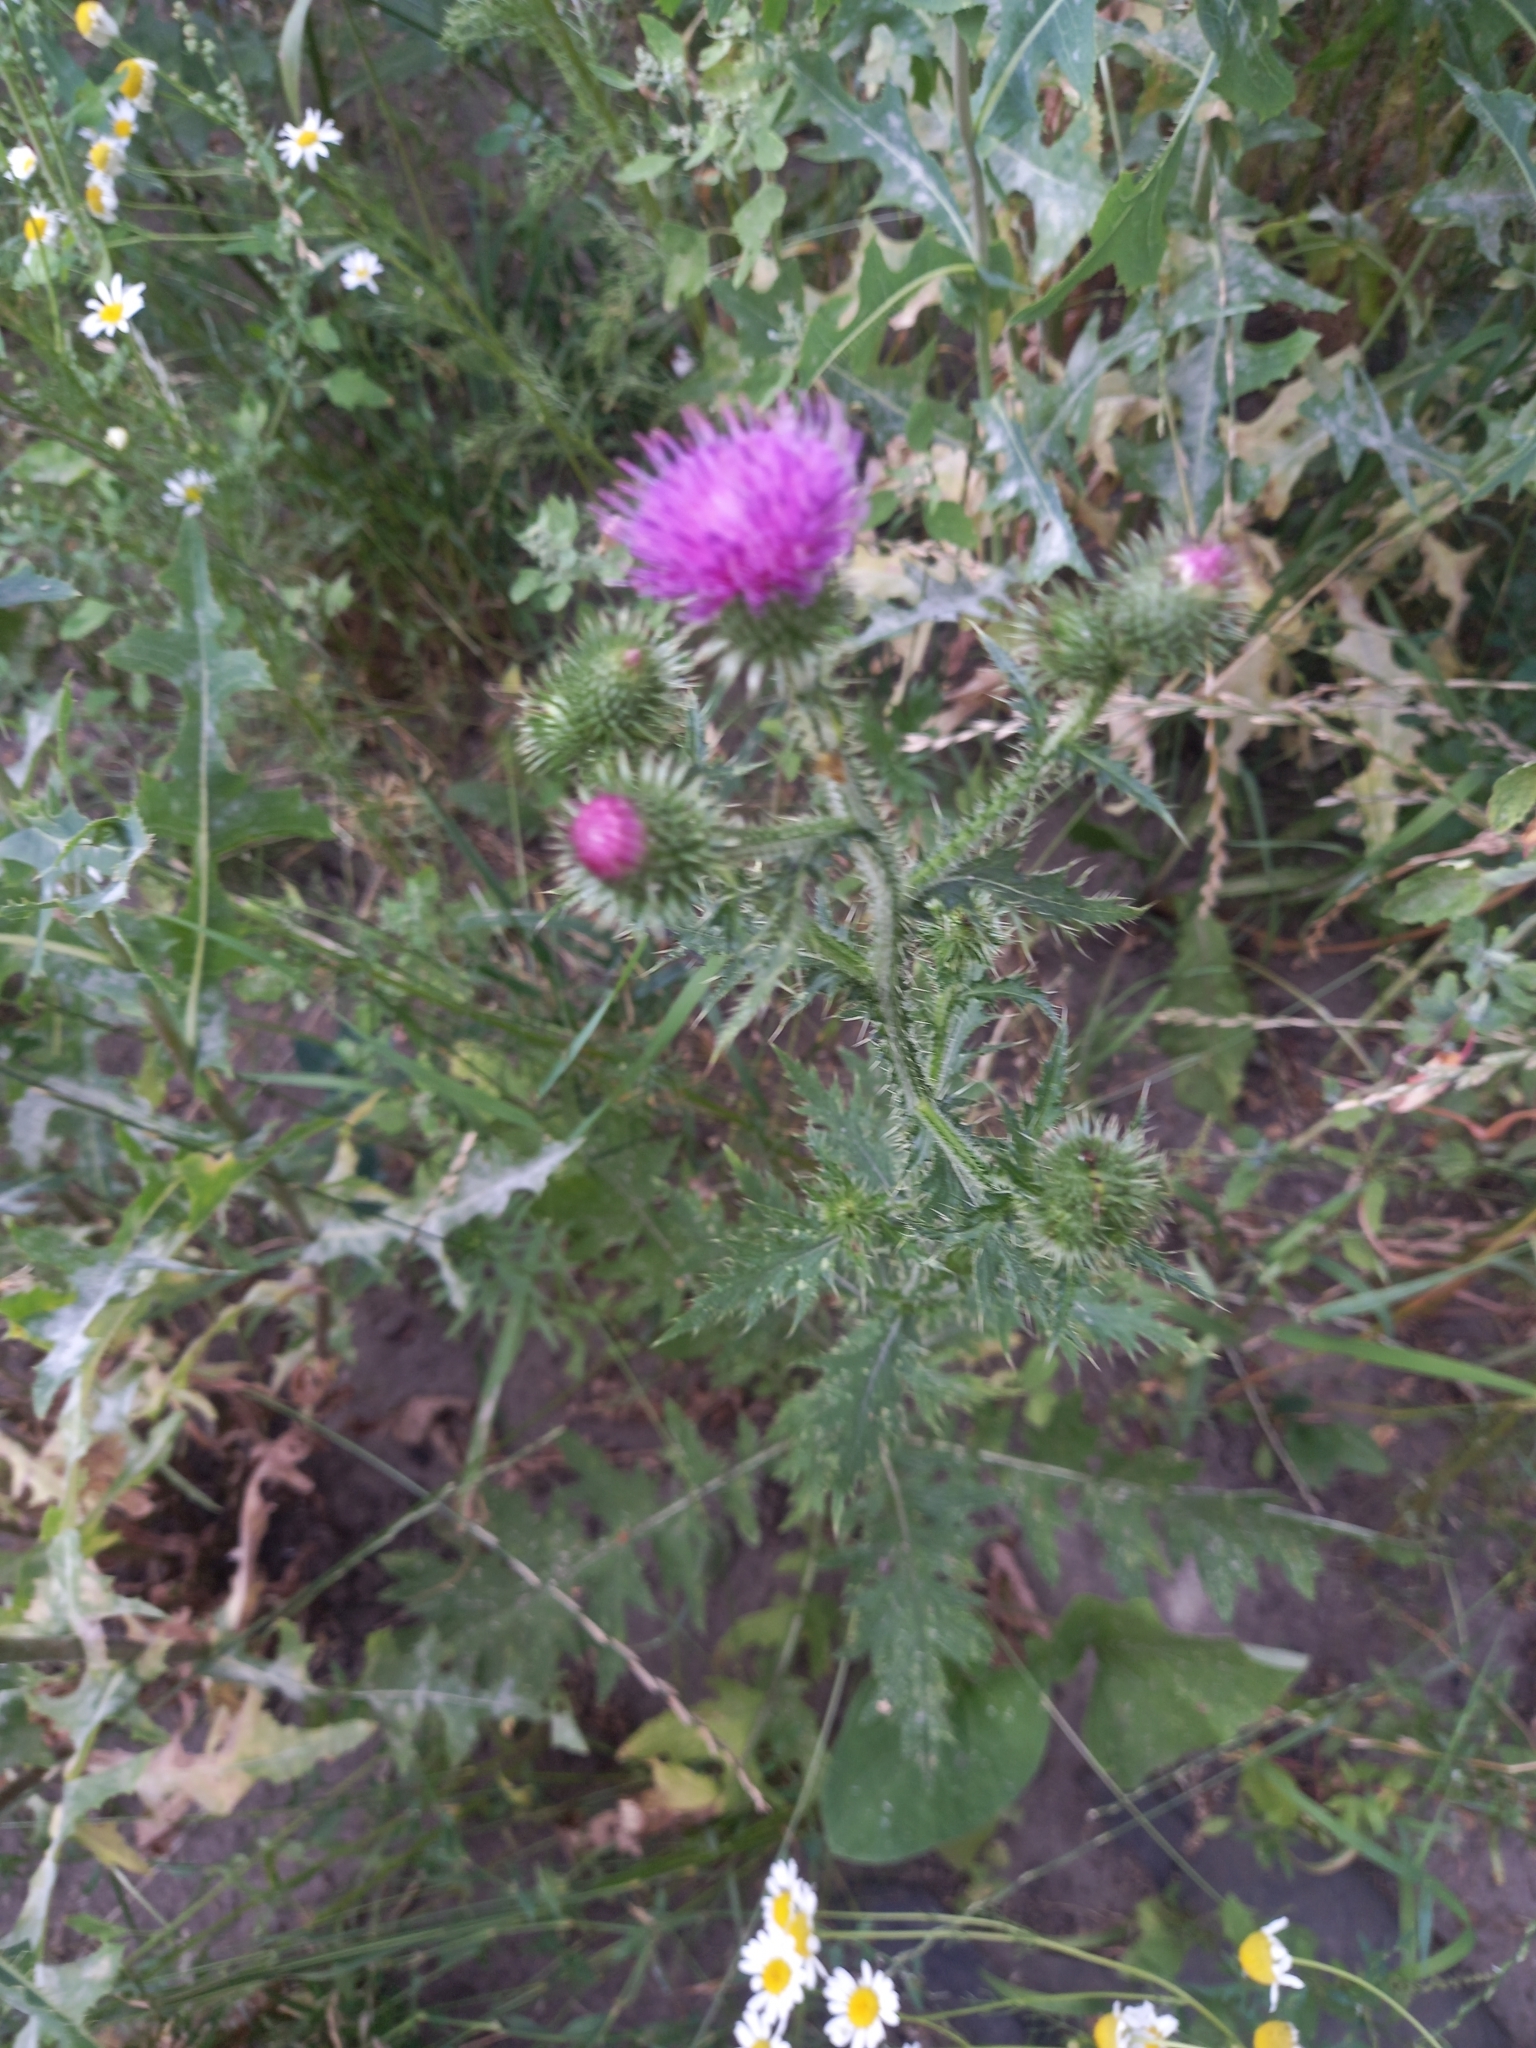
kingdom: Plantae
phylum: Tracheophyta
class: Magnoliopsida
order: Asterales
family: Asteraceae
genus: Carduus
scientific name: Carduus crispus
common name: Welted thistle
